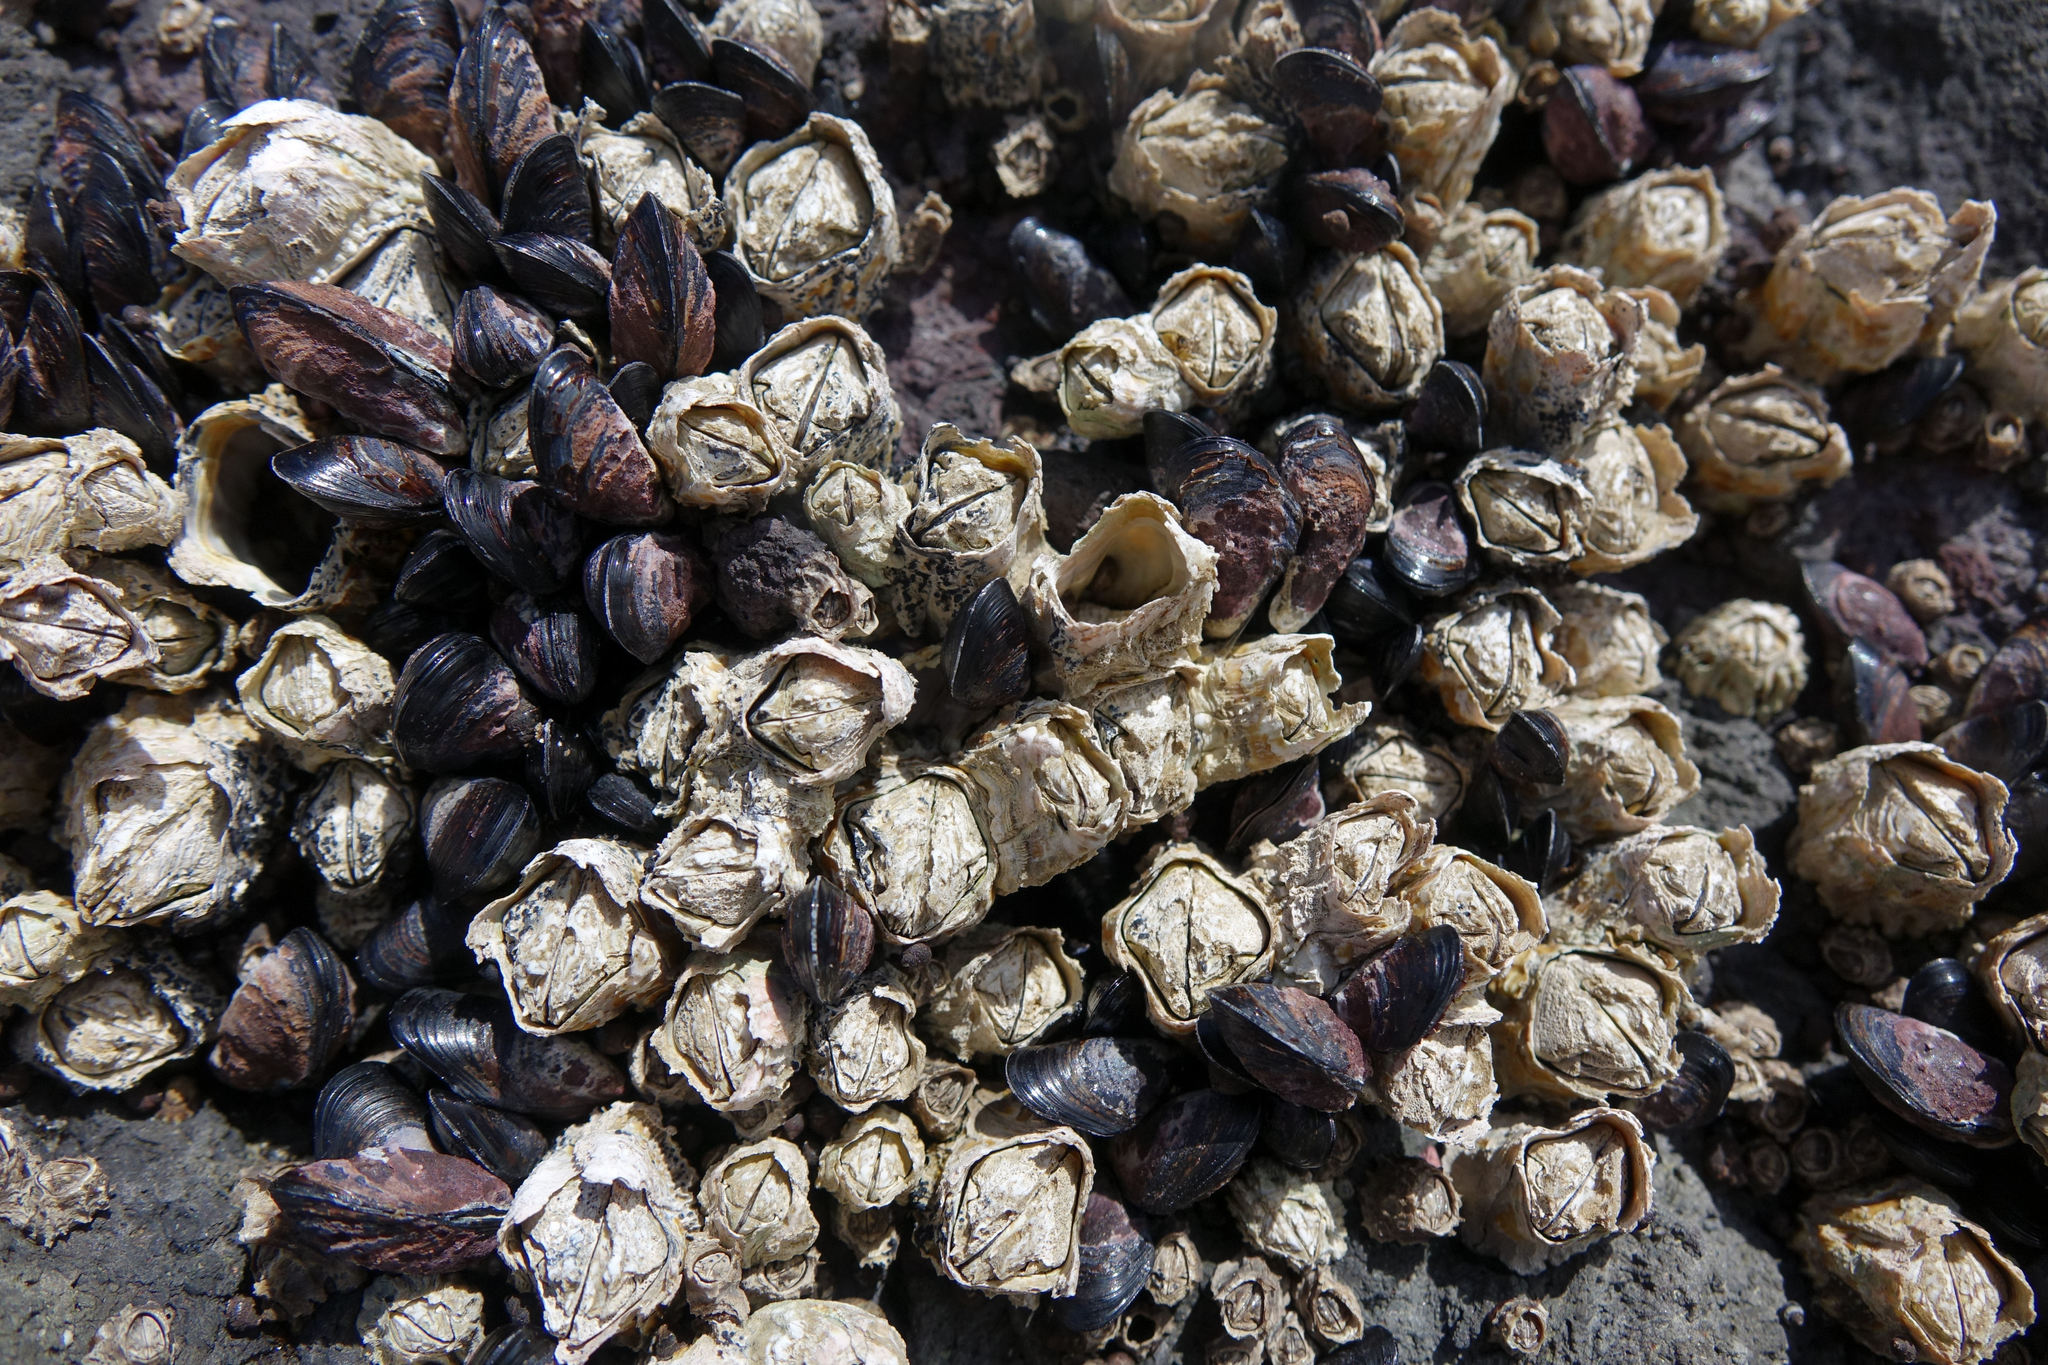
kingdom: Animalia
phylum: Arthropoda
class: Maxillopoda
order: Sessilia
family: Tetraclitidae
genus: Epopella
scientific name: Epopella plicata
